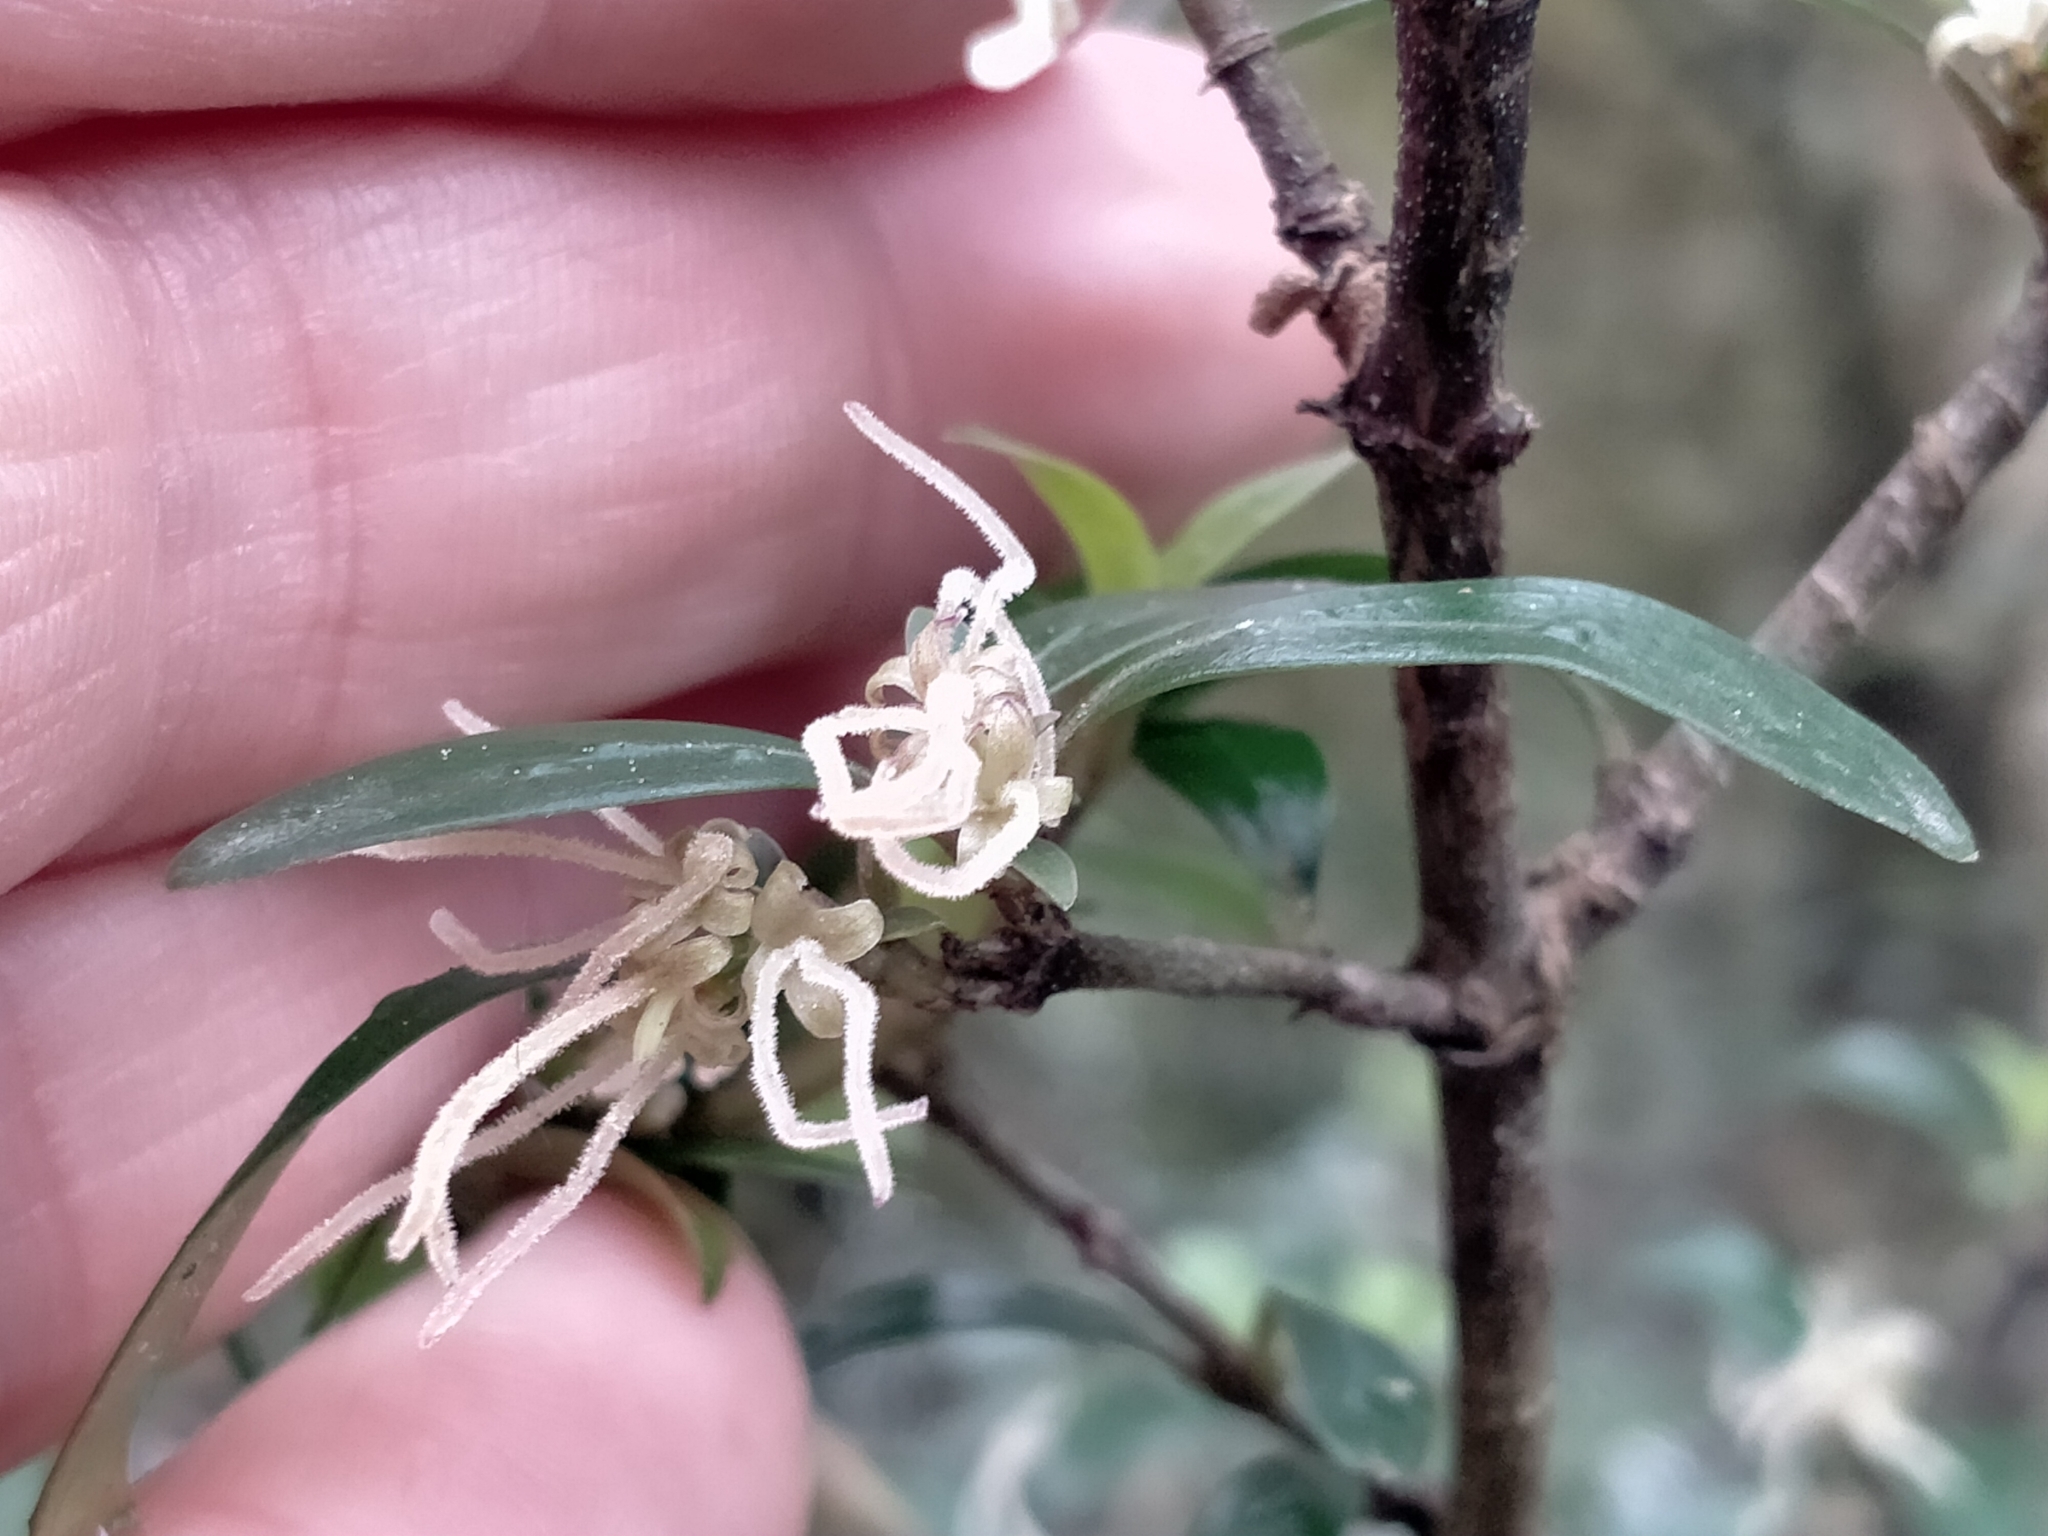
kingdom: Plantae
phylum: Tracheophyta
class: Magnoliopsida
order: Gentianales
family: Rubiaceae
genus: Coprosma
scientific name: Coprosma cunninghamii
